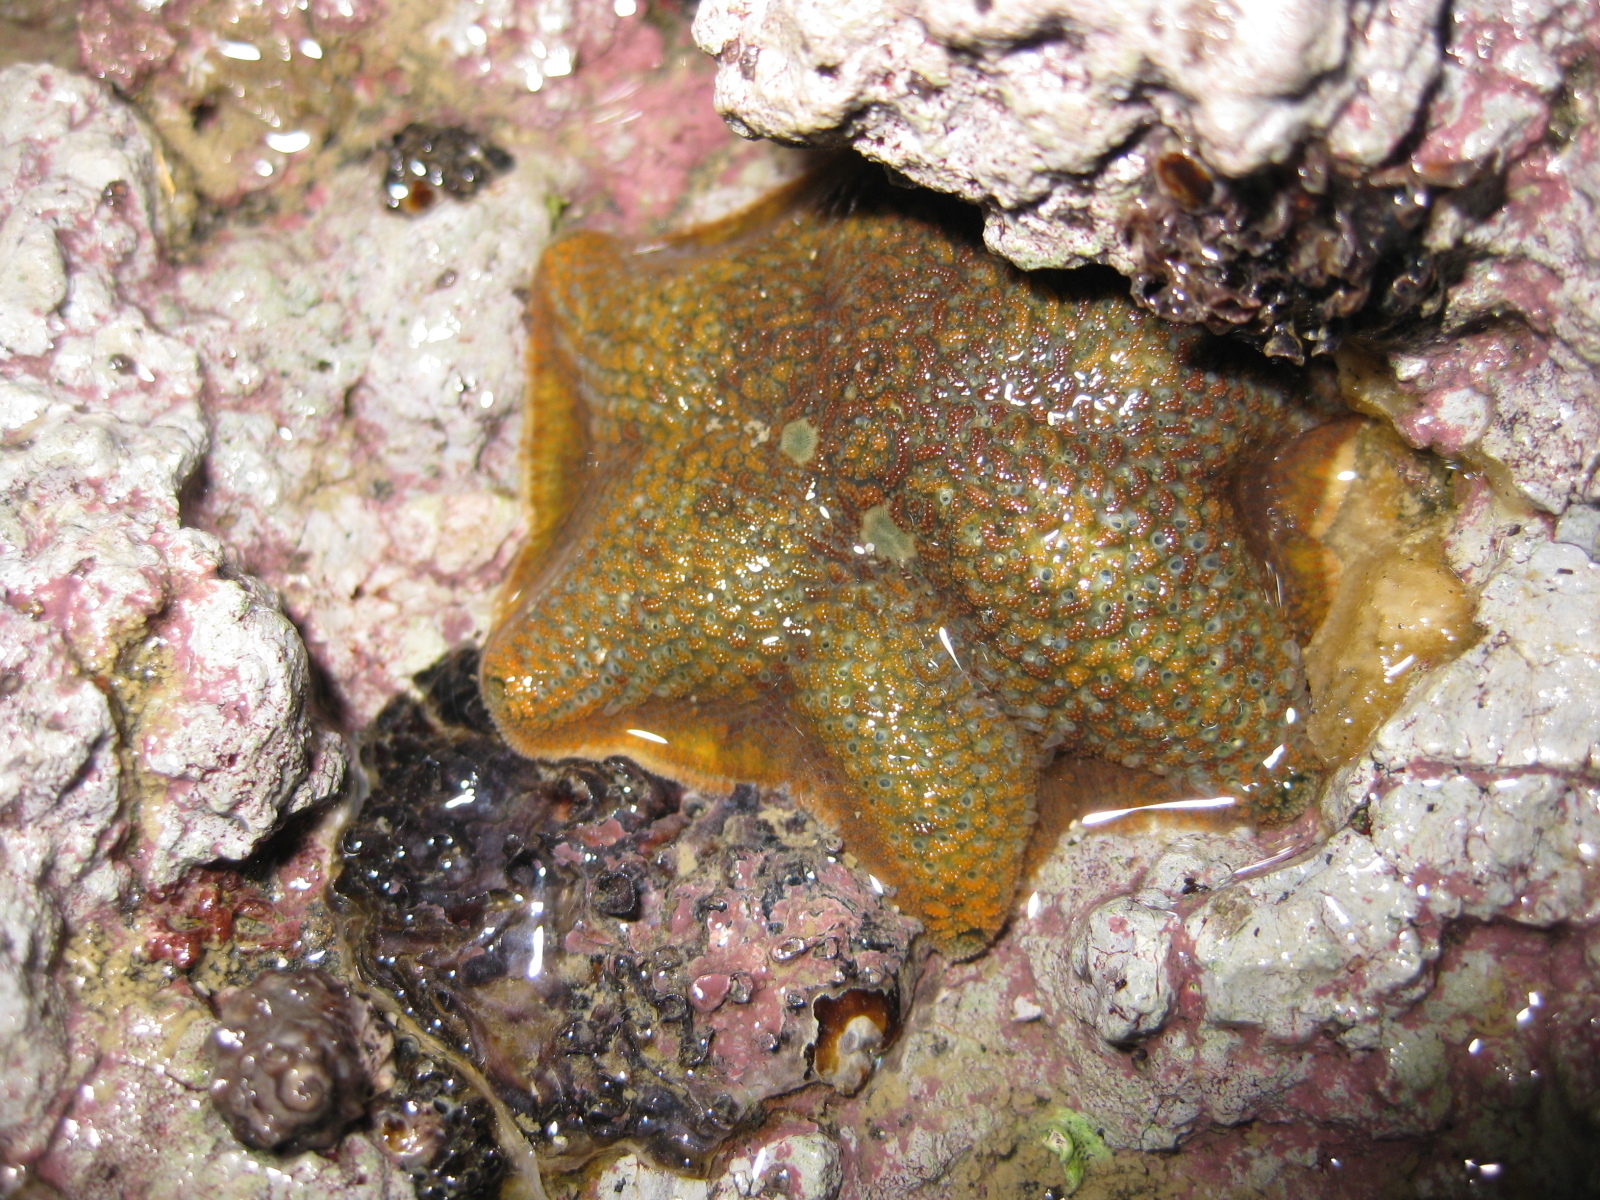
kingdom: Animalia
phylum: Echinodermata
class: Asteroidea
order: Valvatida
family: Asterinidae
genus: Patiriella
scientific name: Patiriella regularis
